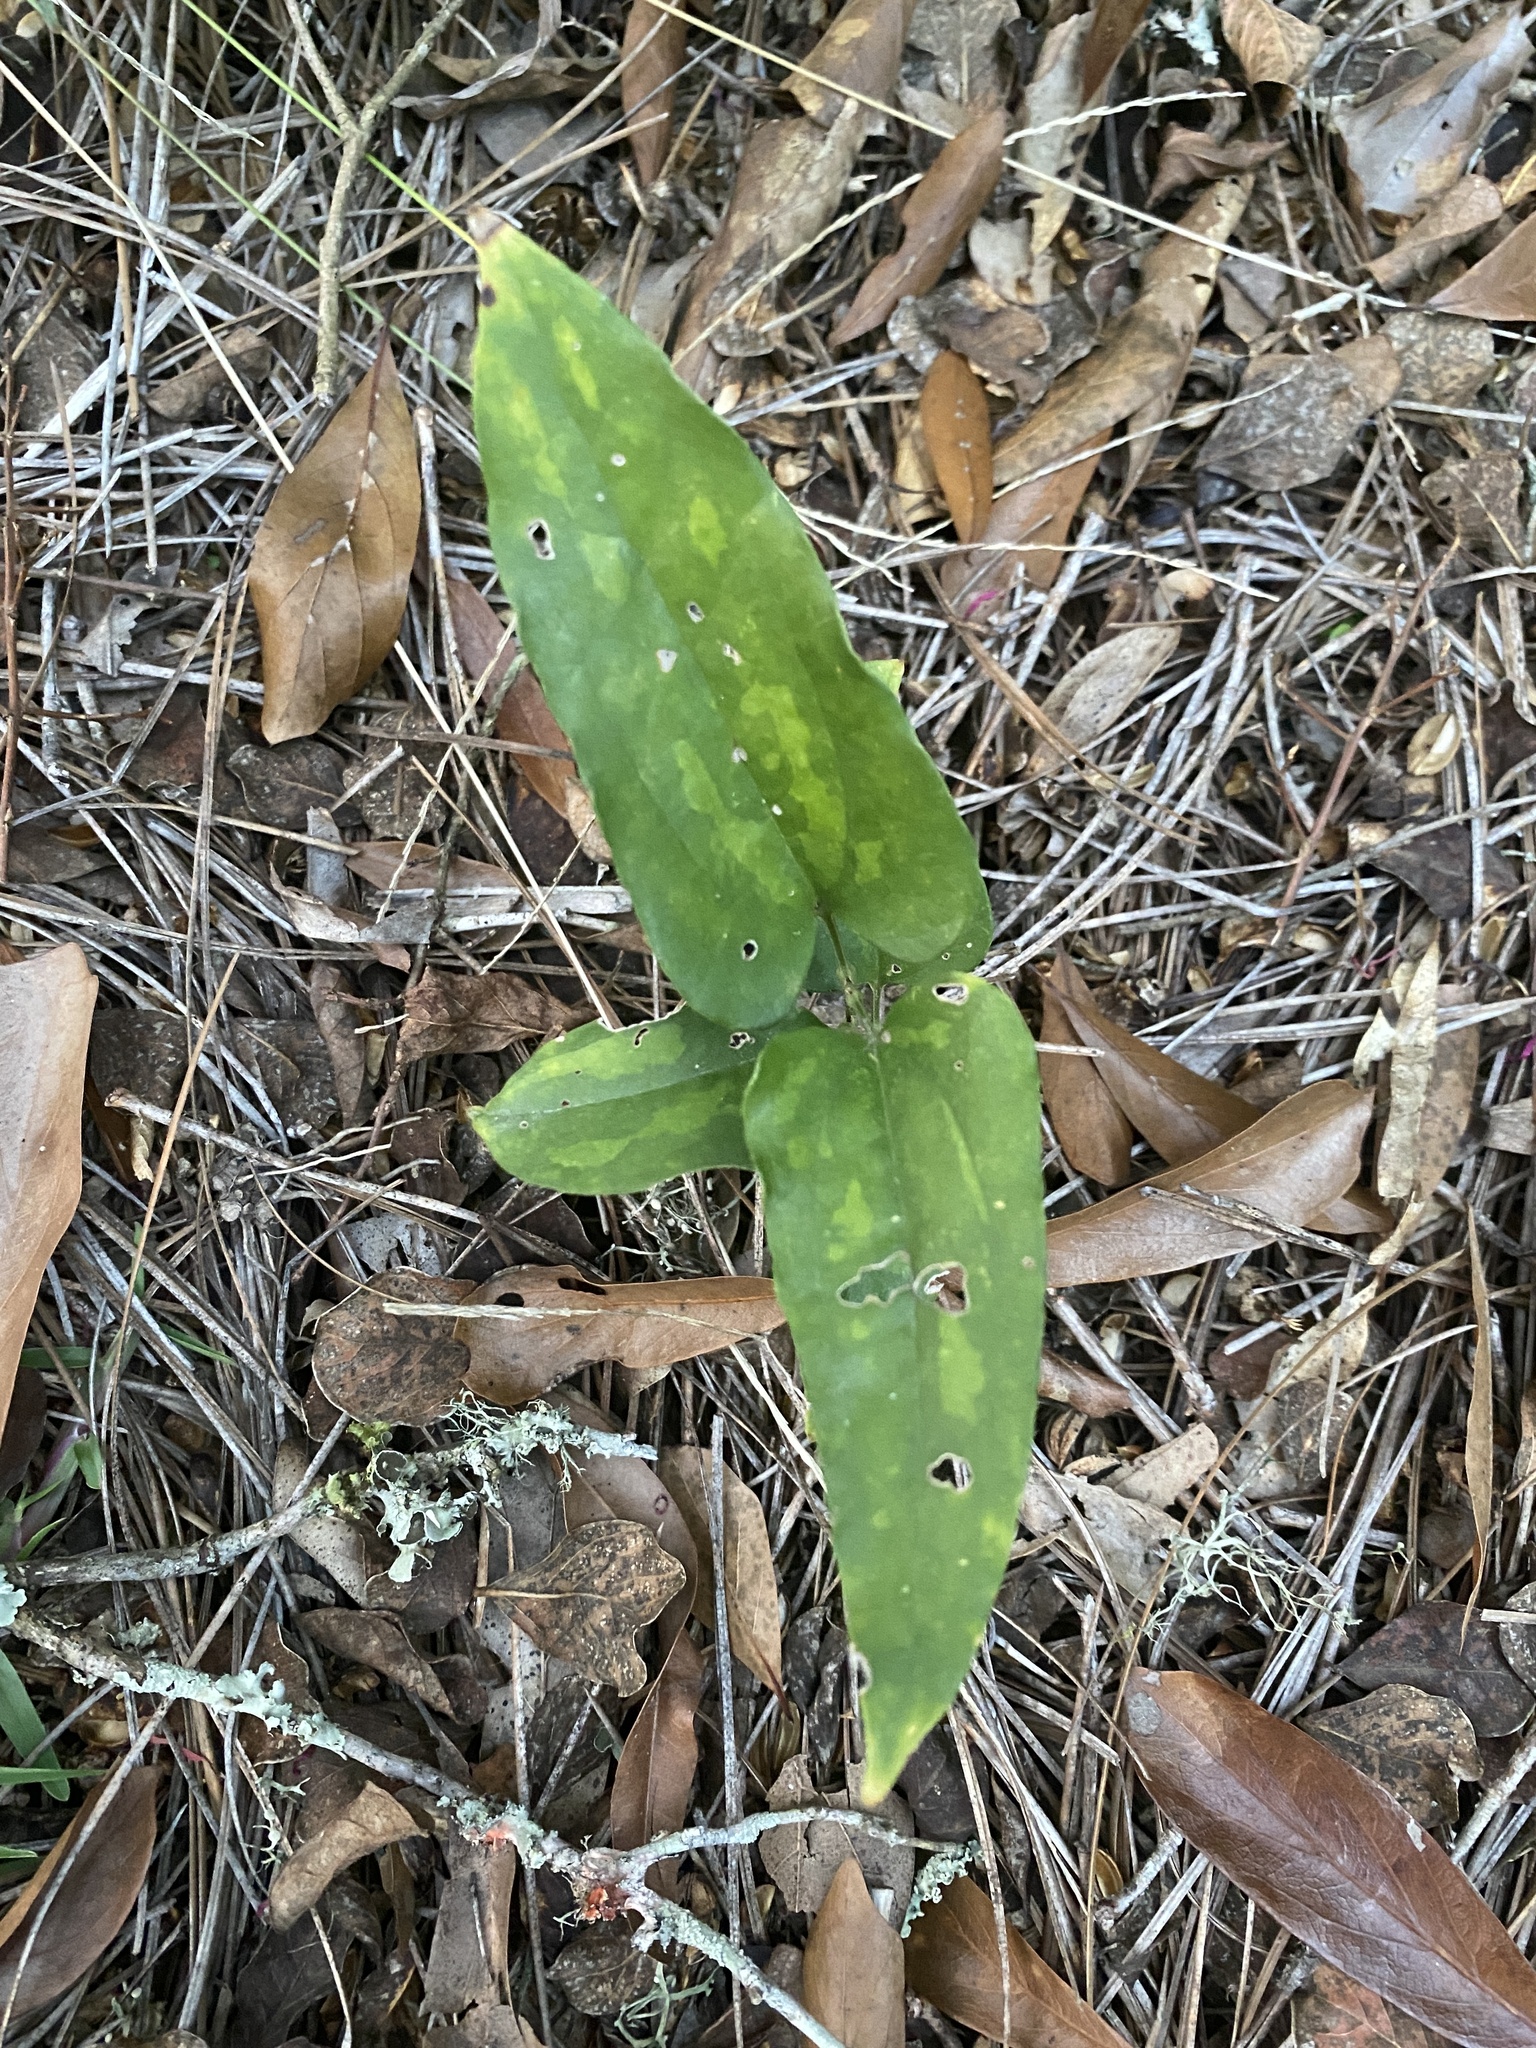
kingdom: Plantae
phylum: Tracheophyta
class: Liliopsida
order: Liliales
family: Smilacaceae
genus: Smilax
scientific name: Smilax maritima
